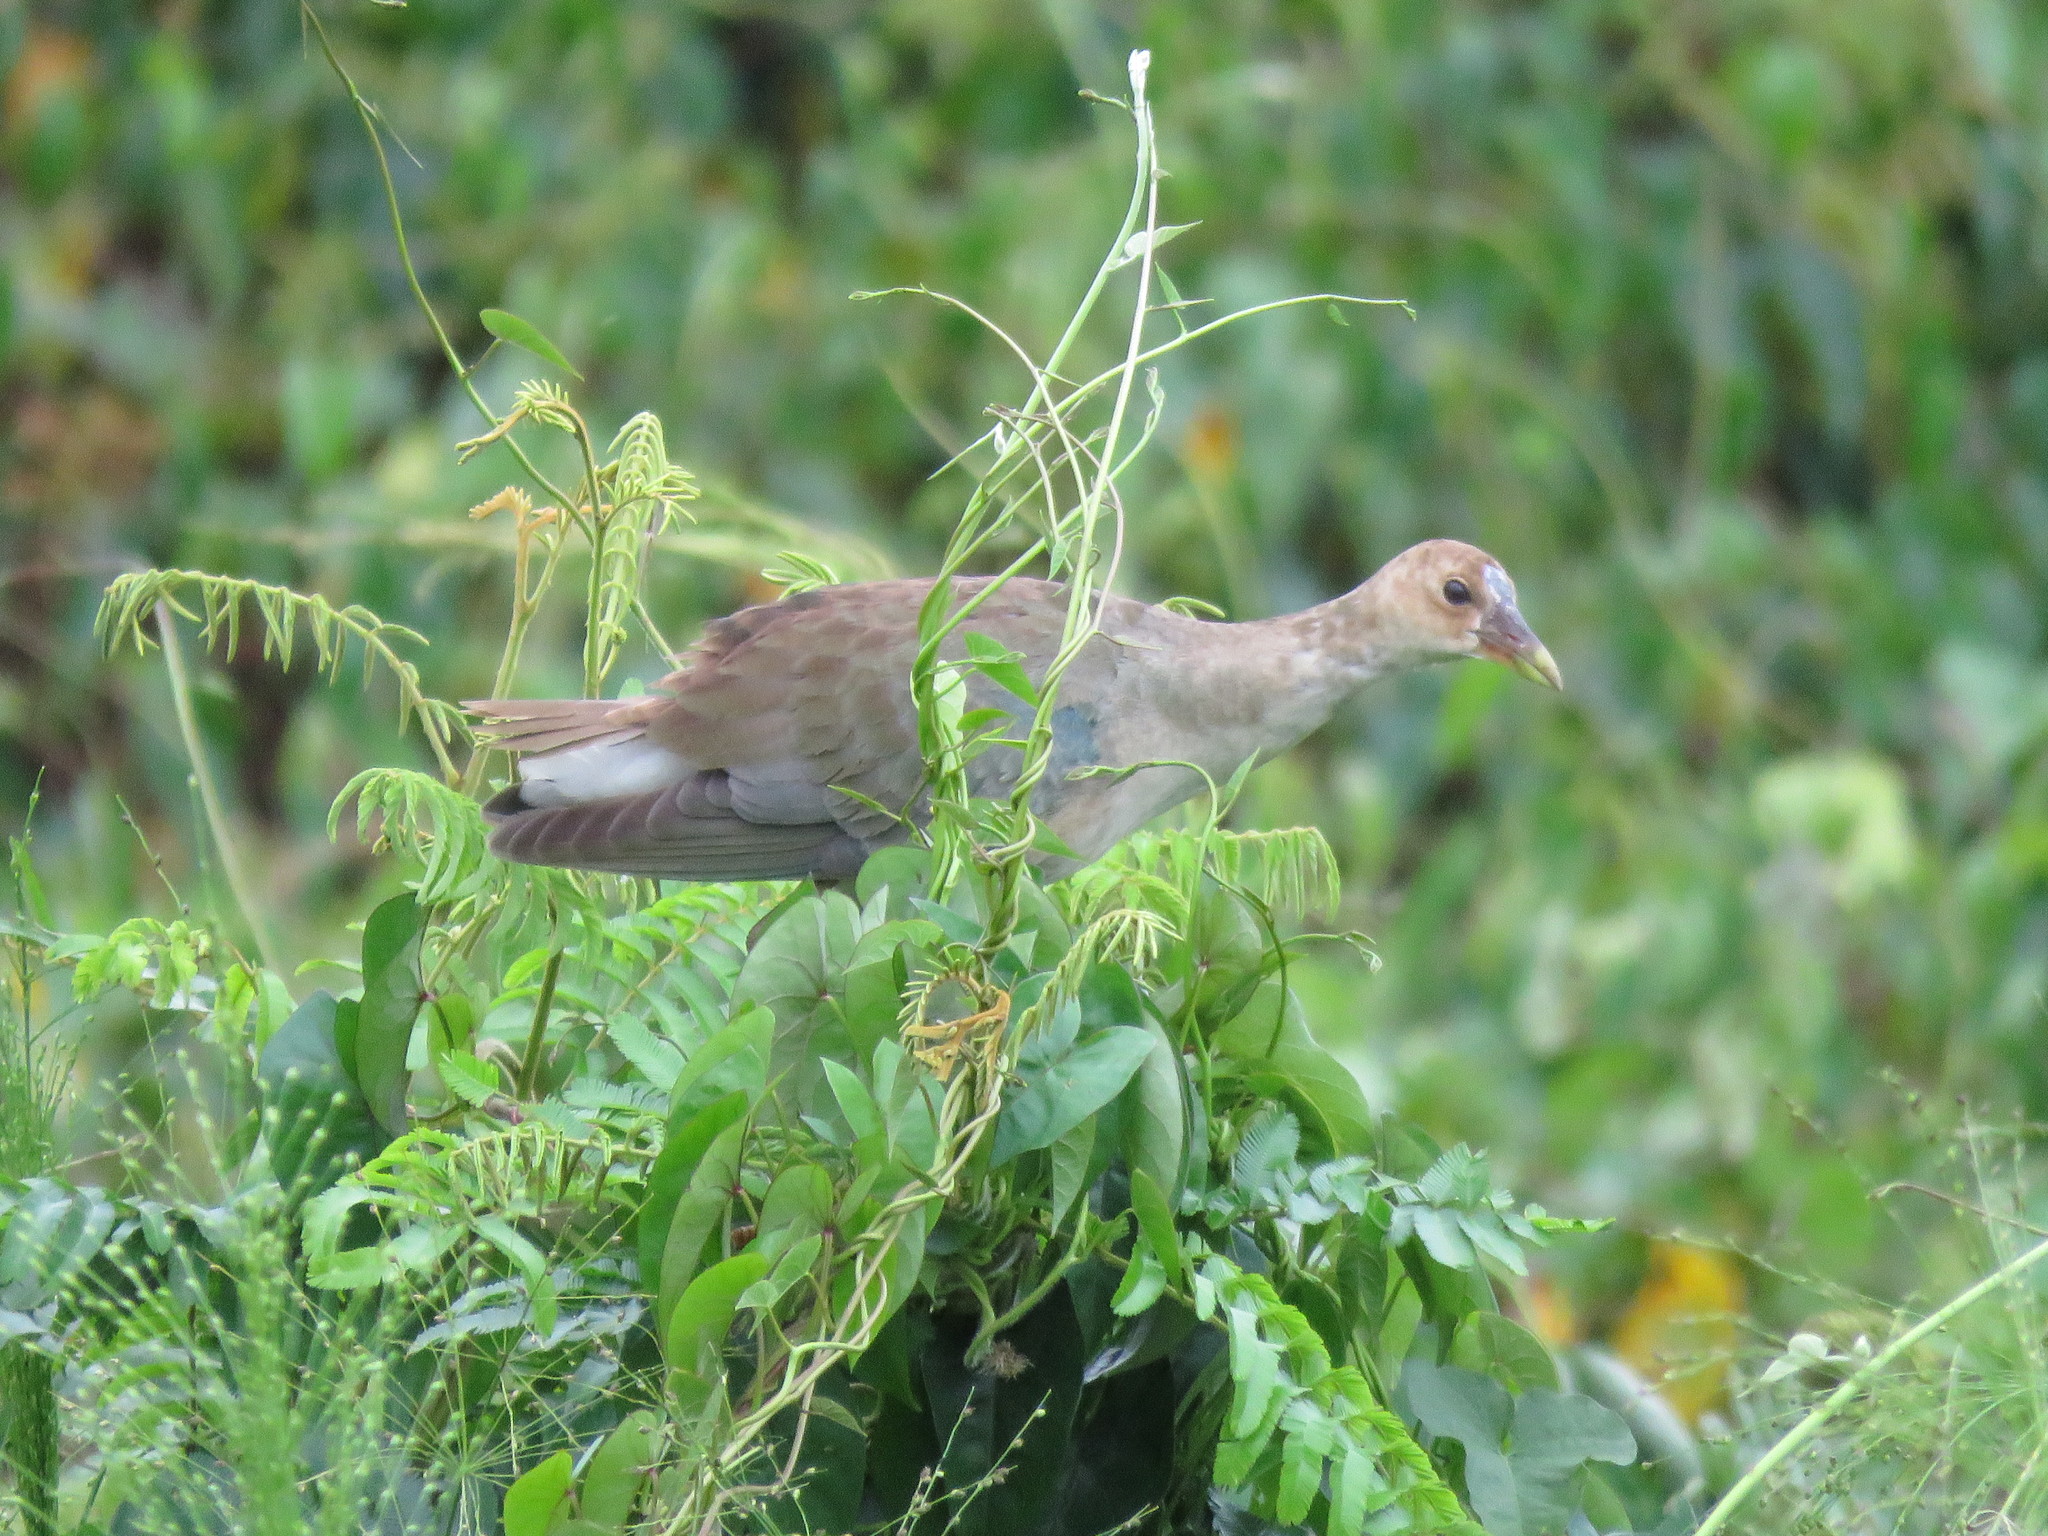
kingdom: Animalia
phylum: Chordata
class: Aves
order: Gruiformes
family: Rallidae
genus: Porphyrio
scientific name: Porphyrio martinica
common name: Purple gallinule
